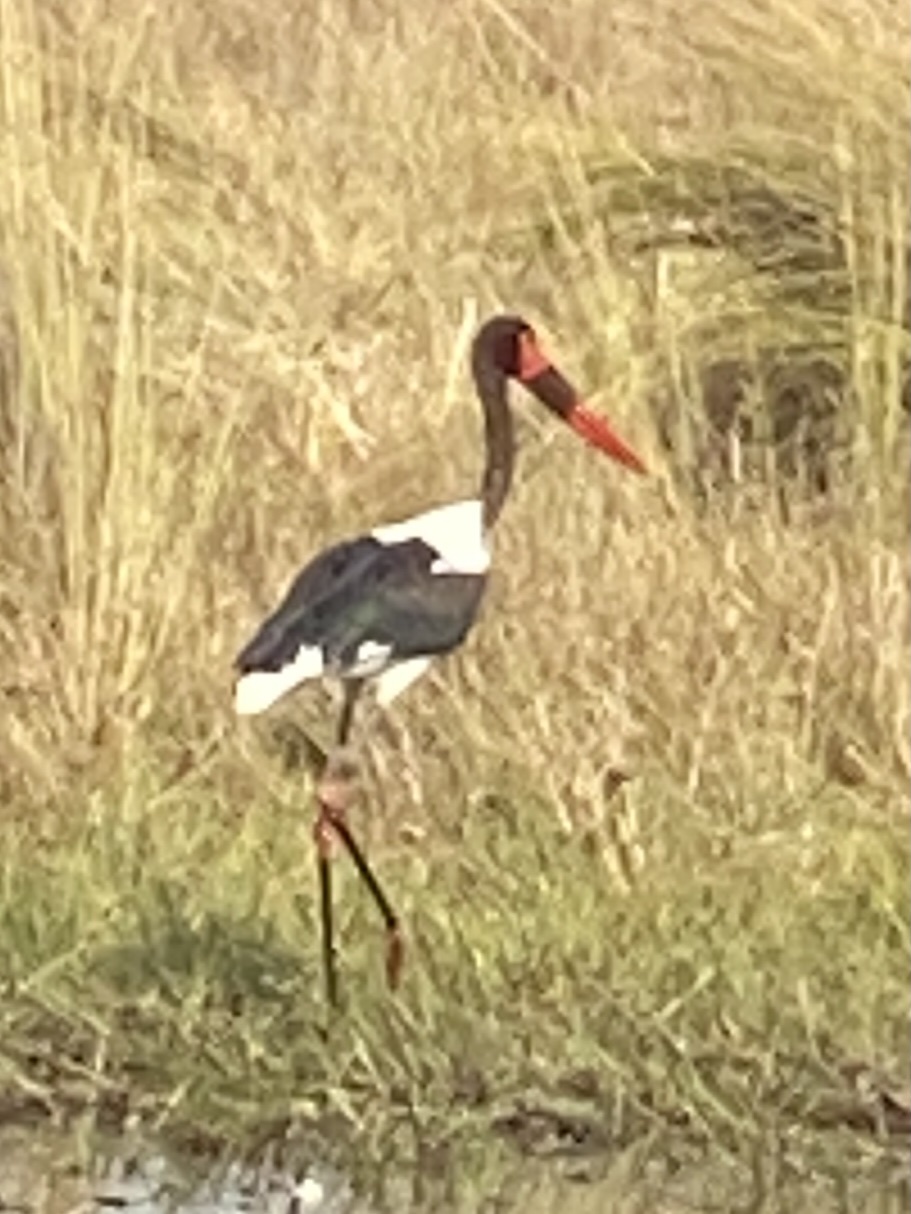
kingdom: Animalia
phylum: Chordata
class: Aves
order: Ciconiiformes
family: Ciconiidae
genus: Ephippiorhynchus
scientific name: Ephippiorhynchus senegalensis
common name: Saddle-billed stork
